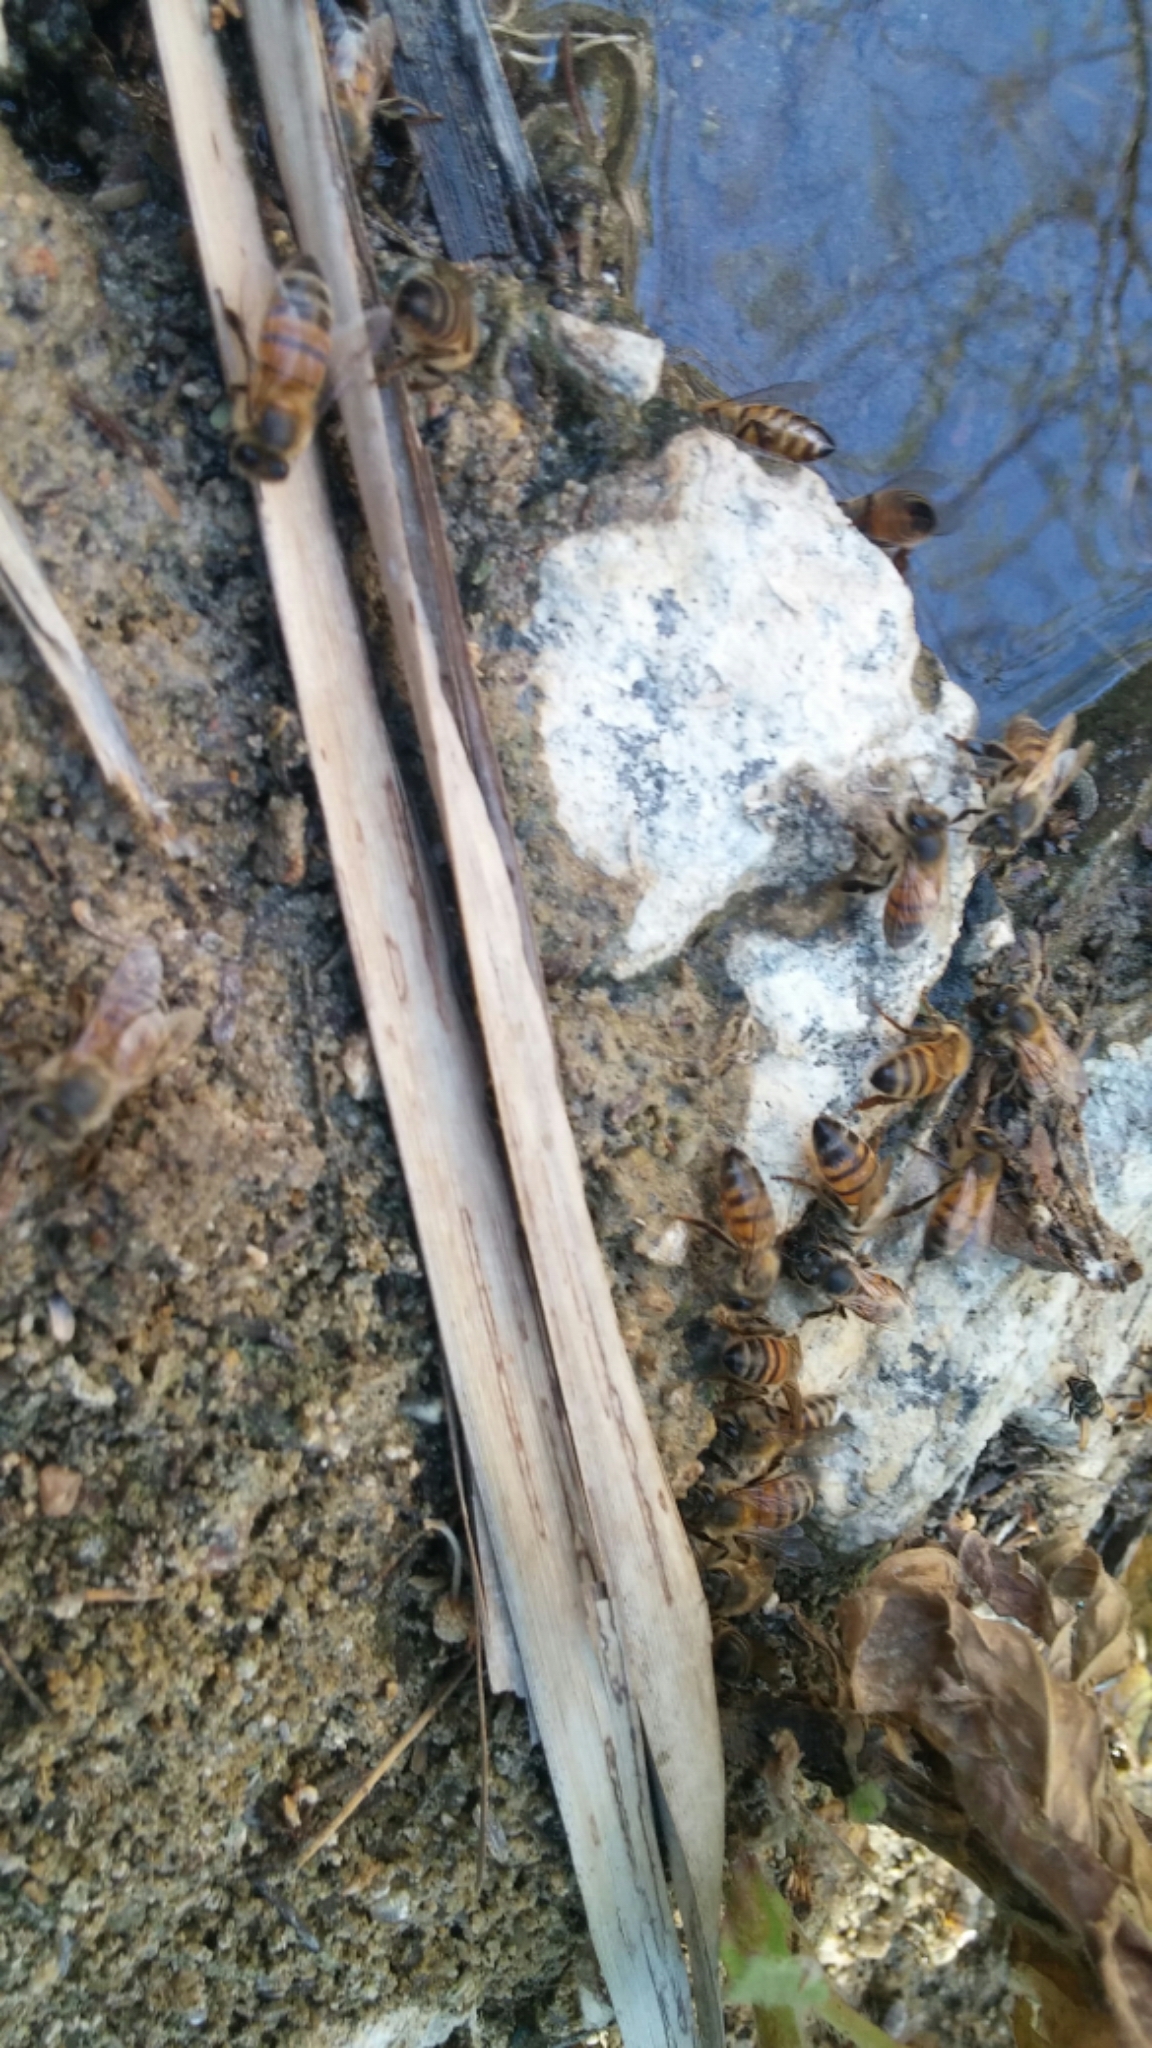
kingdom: Animalia
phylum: Arthropoda
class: Insecta
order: Hymenoptera
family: Apidae
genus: Apis
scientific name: Apis mellifera
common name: Honey bee
